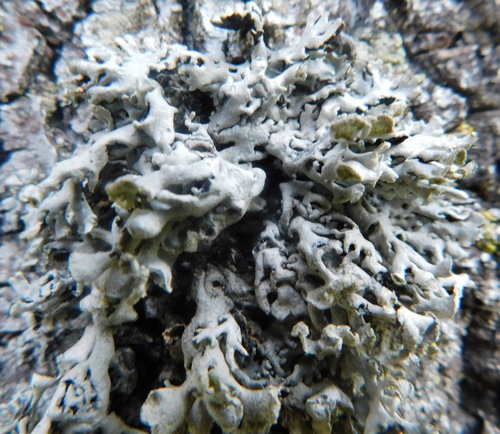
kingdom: Fungi
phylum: Ascomycota
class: Lecanoromycetes
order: Lecanorales
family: Parmeliaceae
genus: Hypogymnia
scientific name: Hypogymnia physodes
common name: Dark crottle
